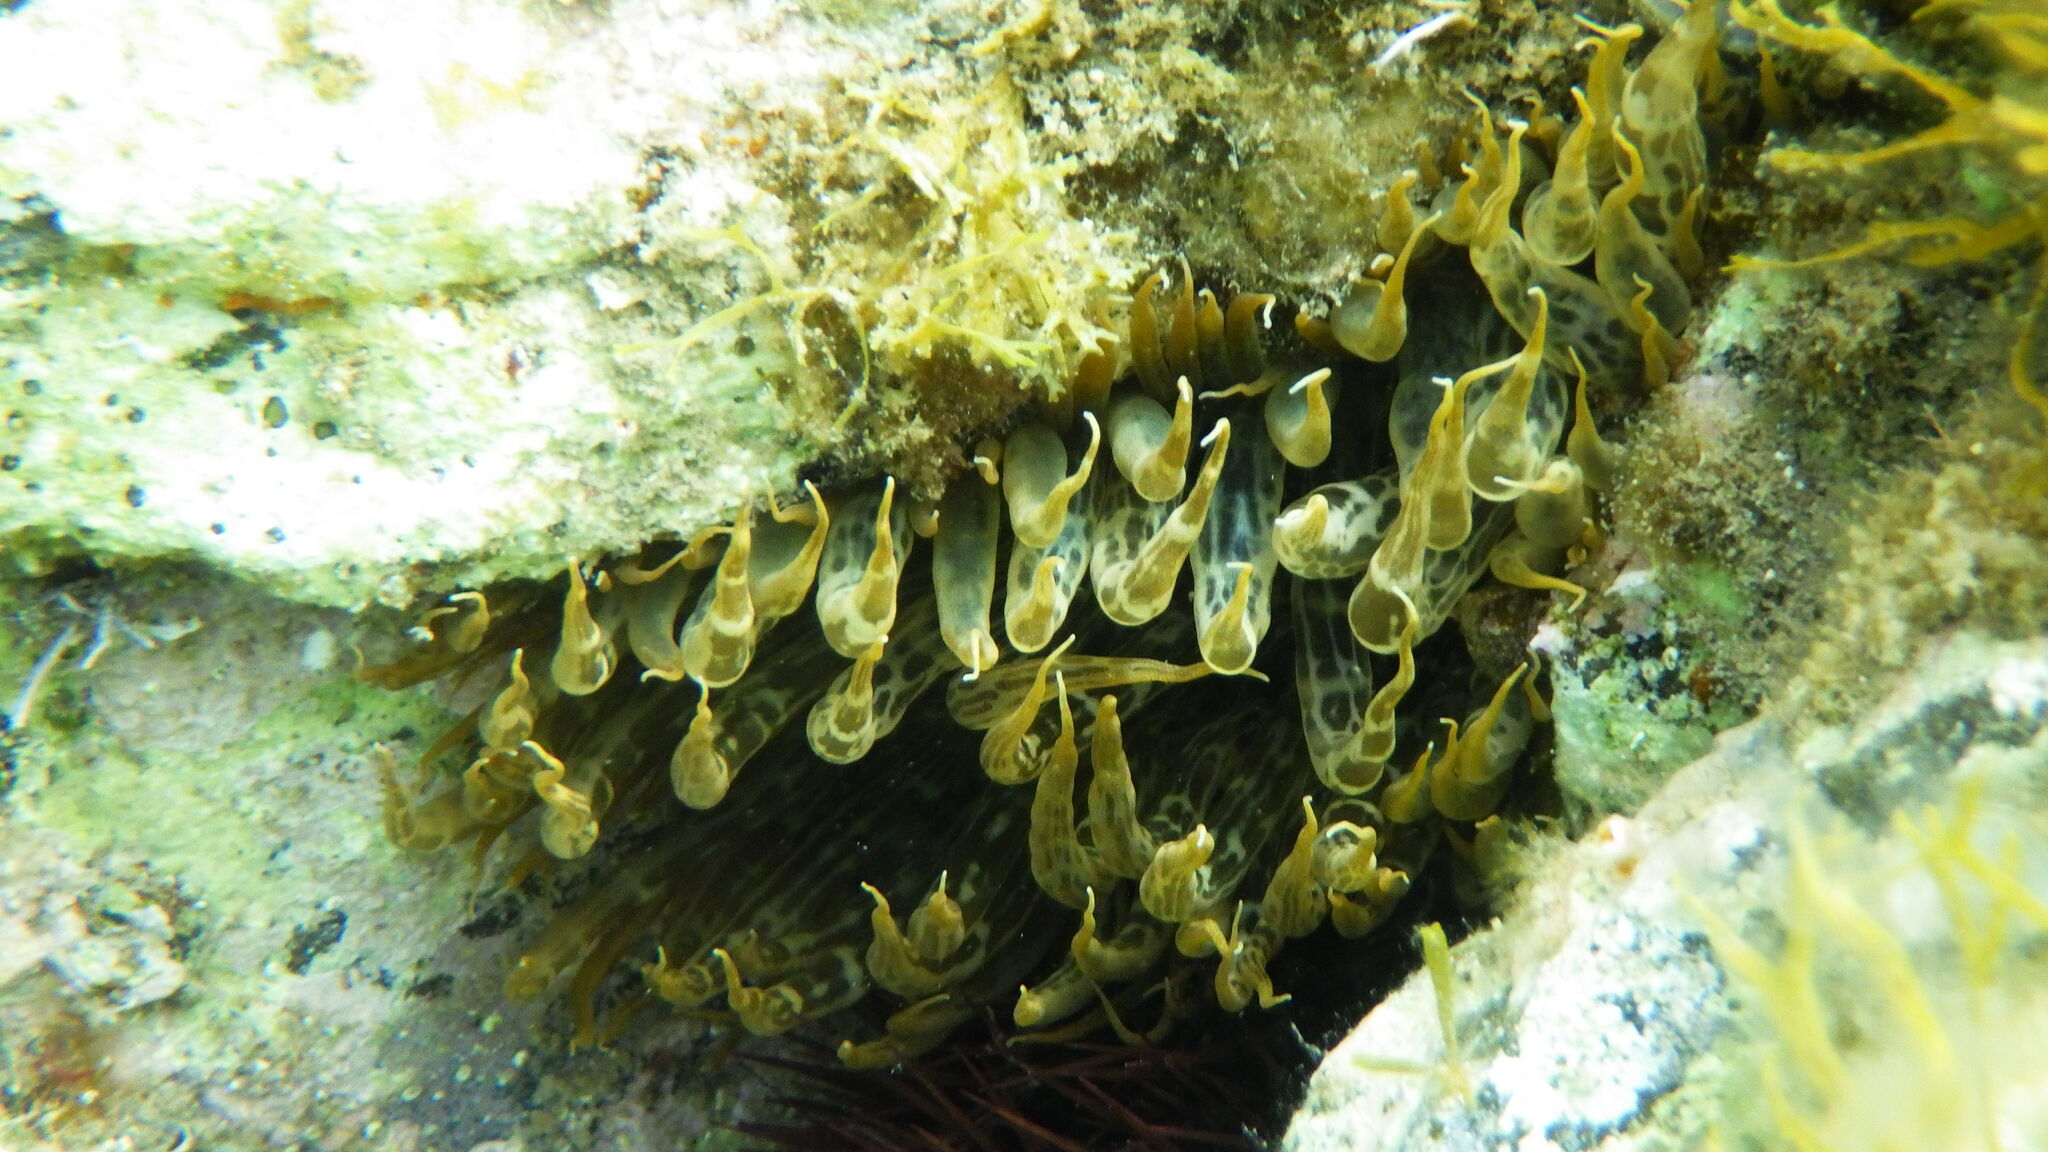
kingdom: Animalia
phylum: Cnidaria
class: Anthozoa
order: Actiniaria
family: Aiptasiidae
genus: Aiptasia
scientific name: Aiptasia mutabilis
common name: Trumpet anemone
